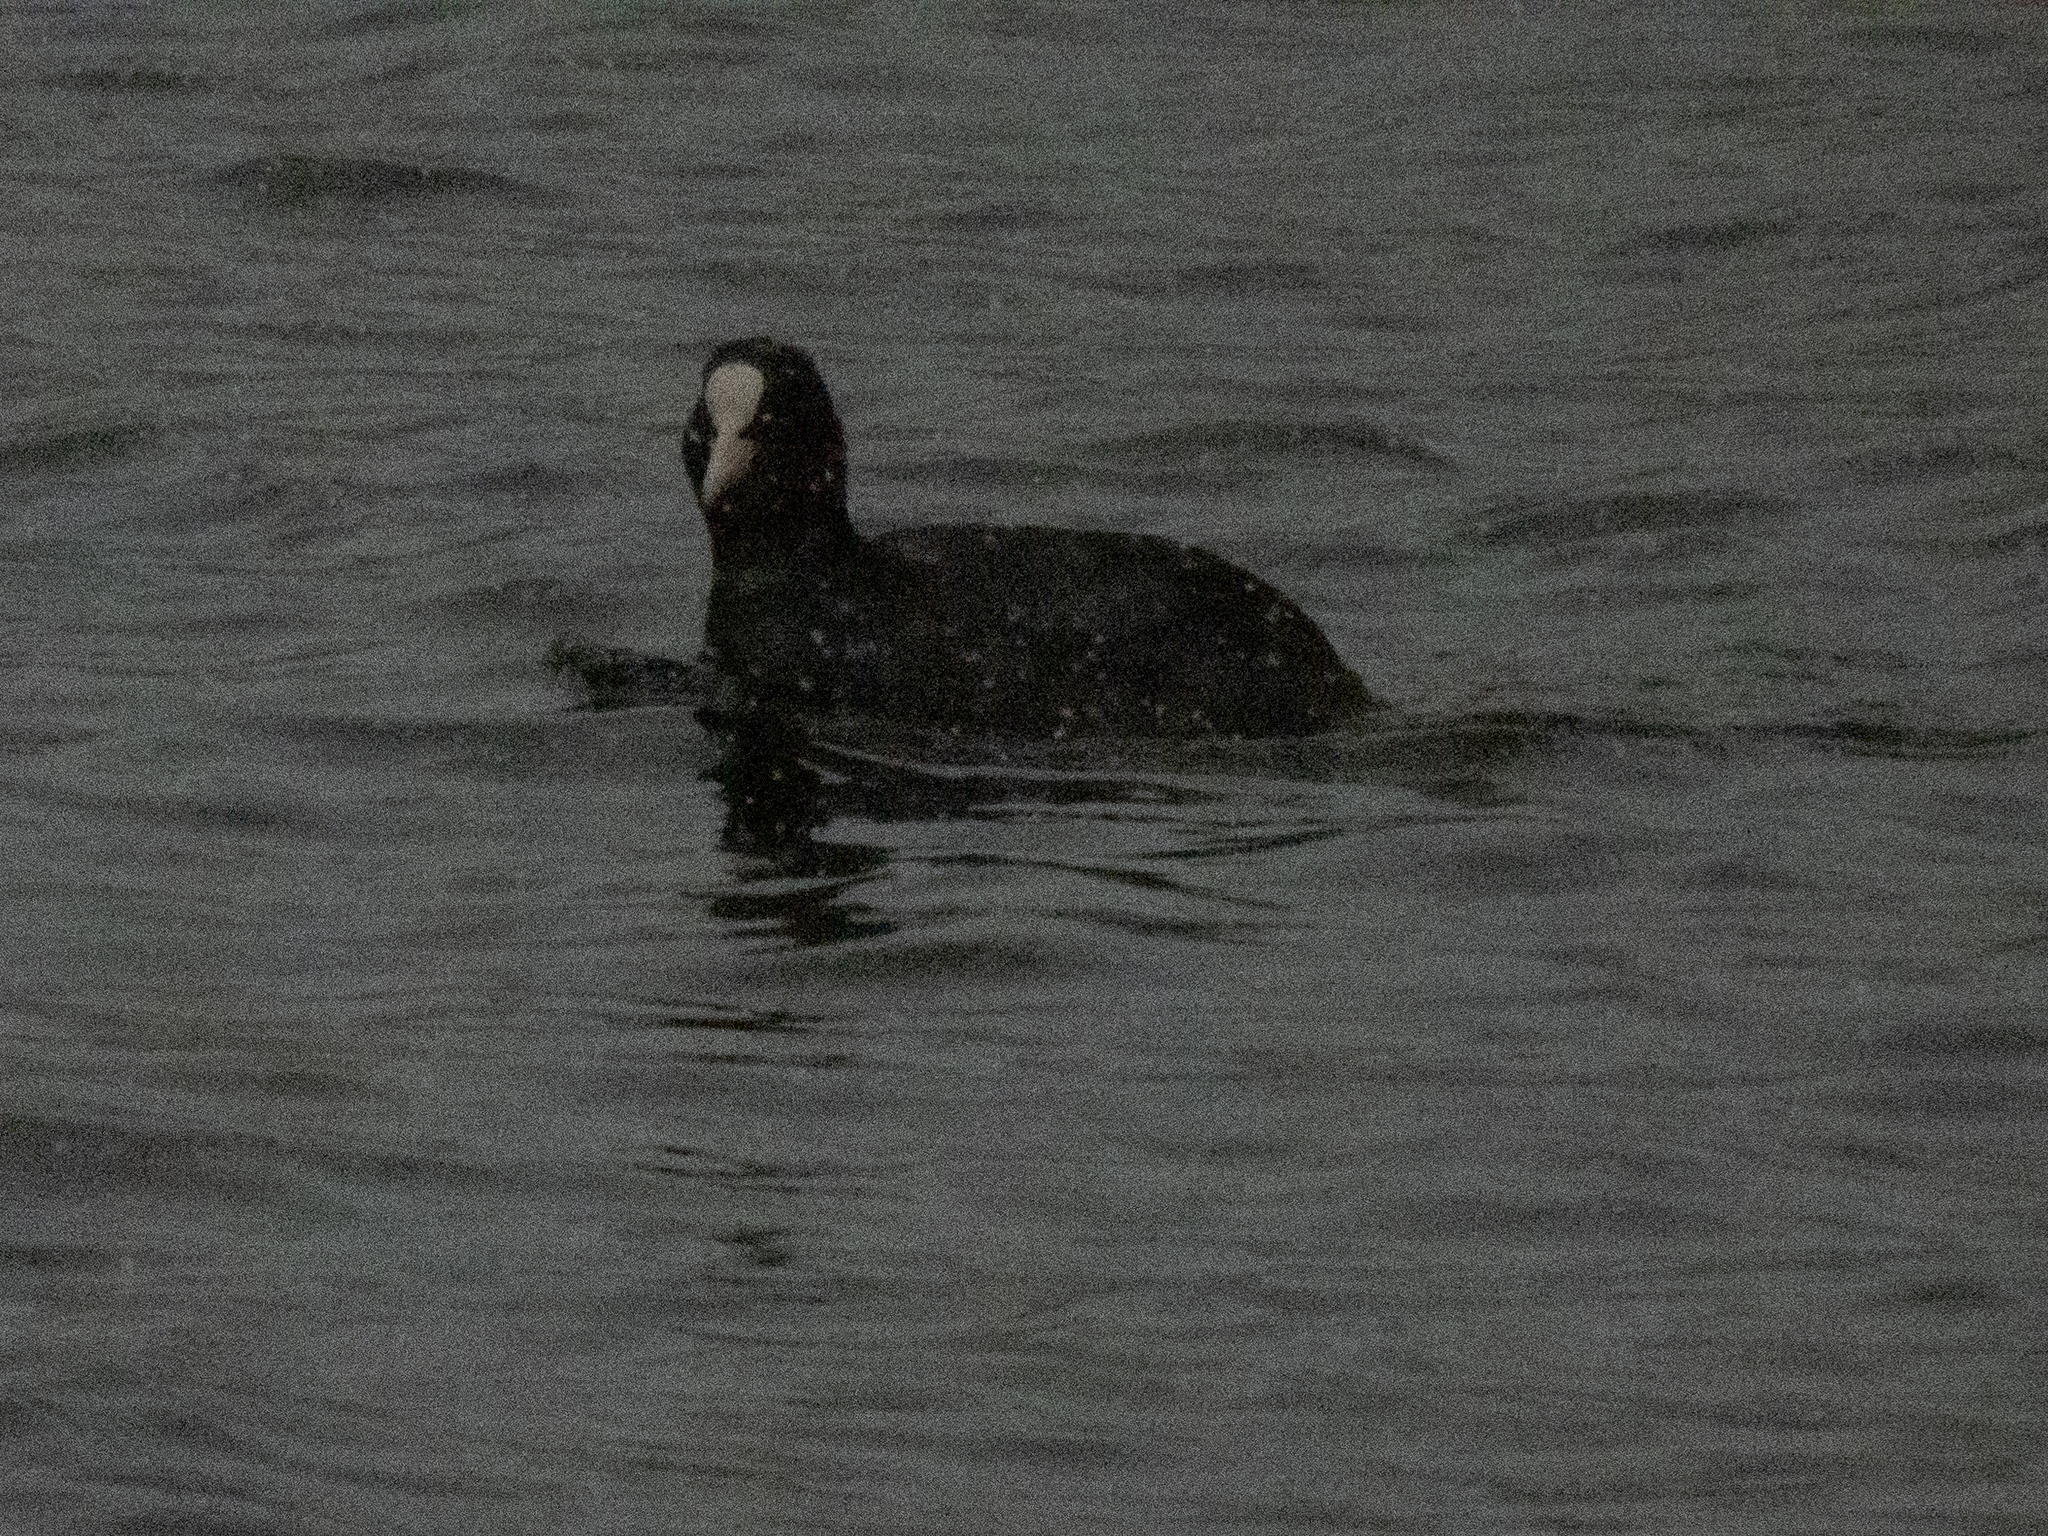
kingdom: Animalia
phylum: Chordata
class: Aves
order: Gruiformes
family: Rallidae
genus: Fulica
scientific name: Fulica atra
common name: Eurasian coot
